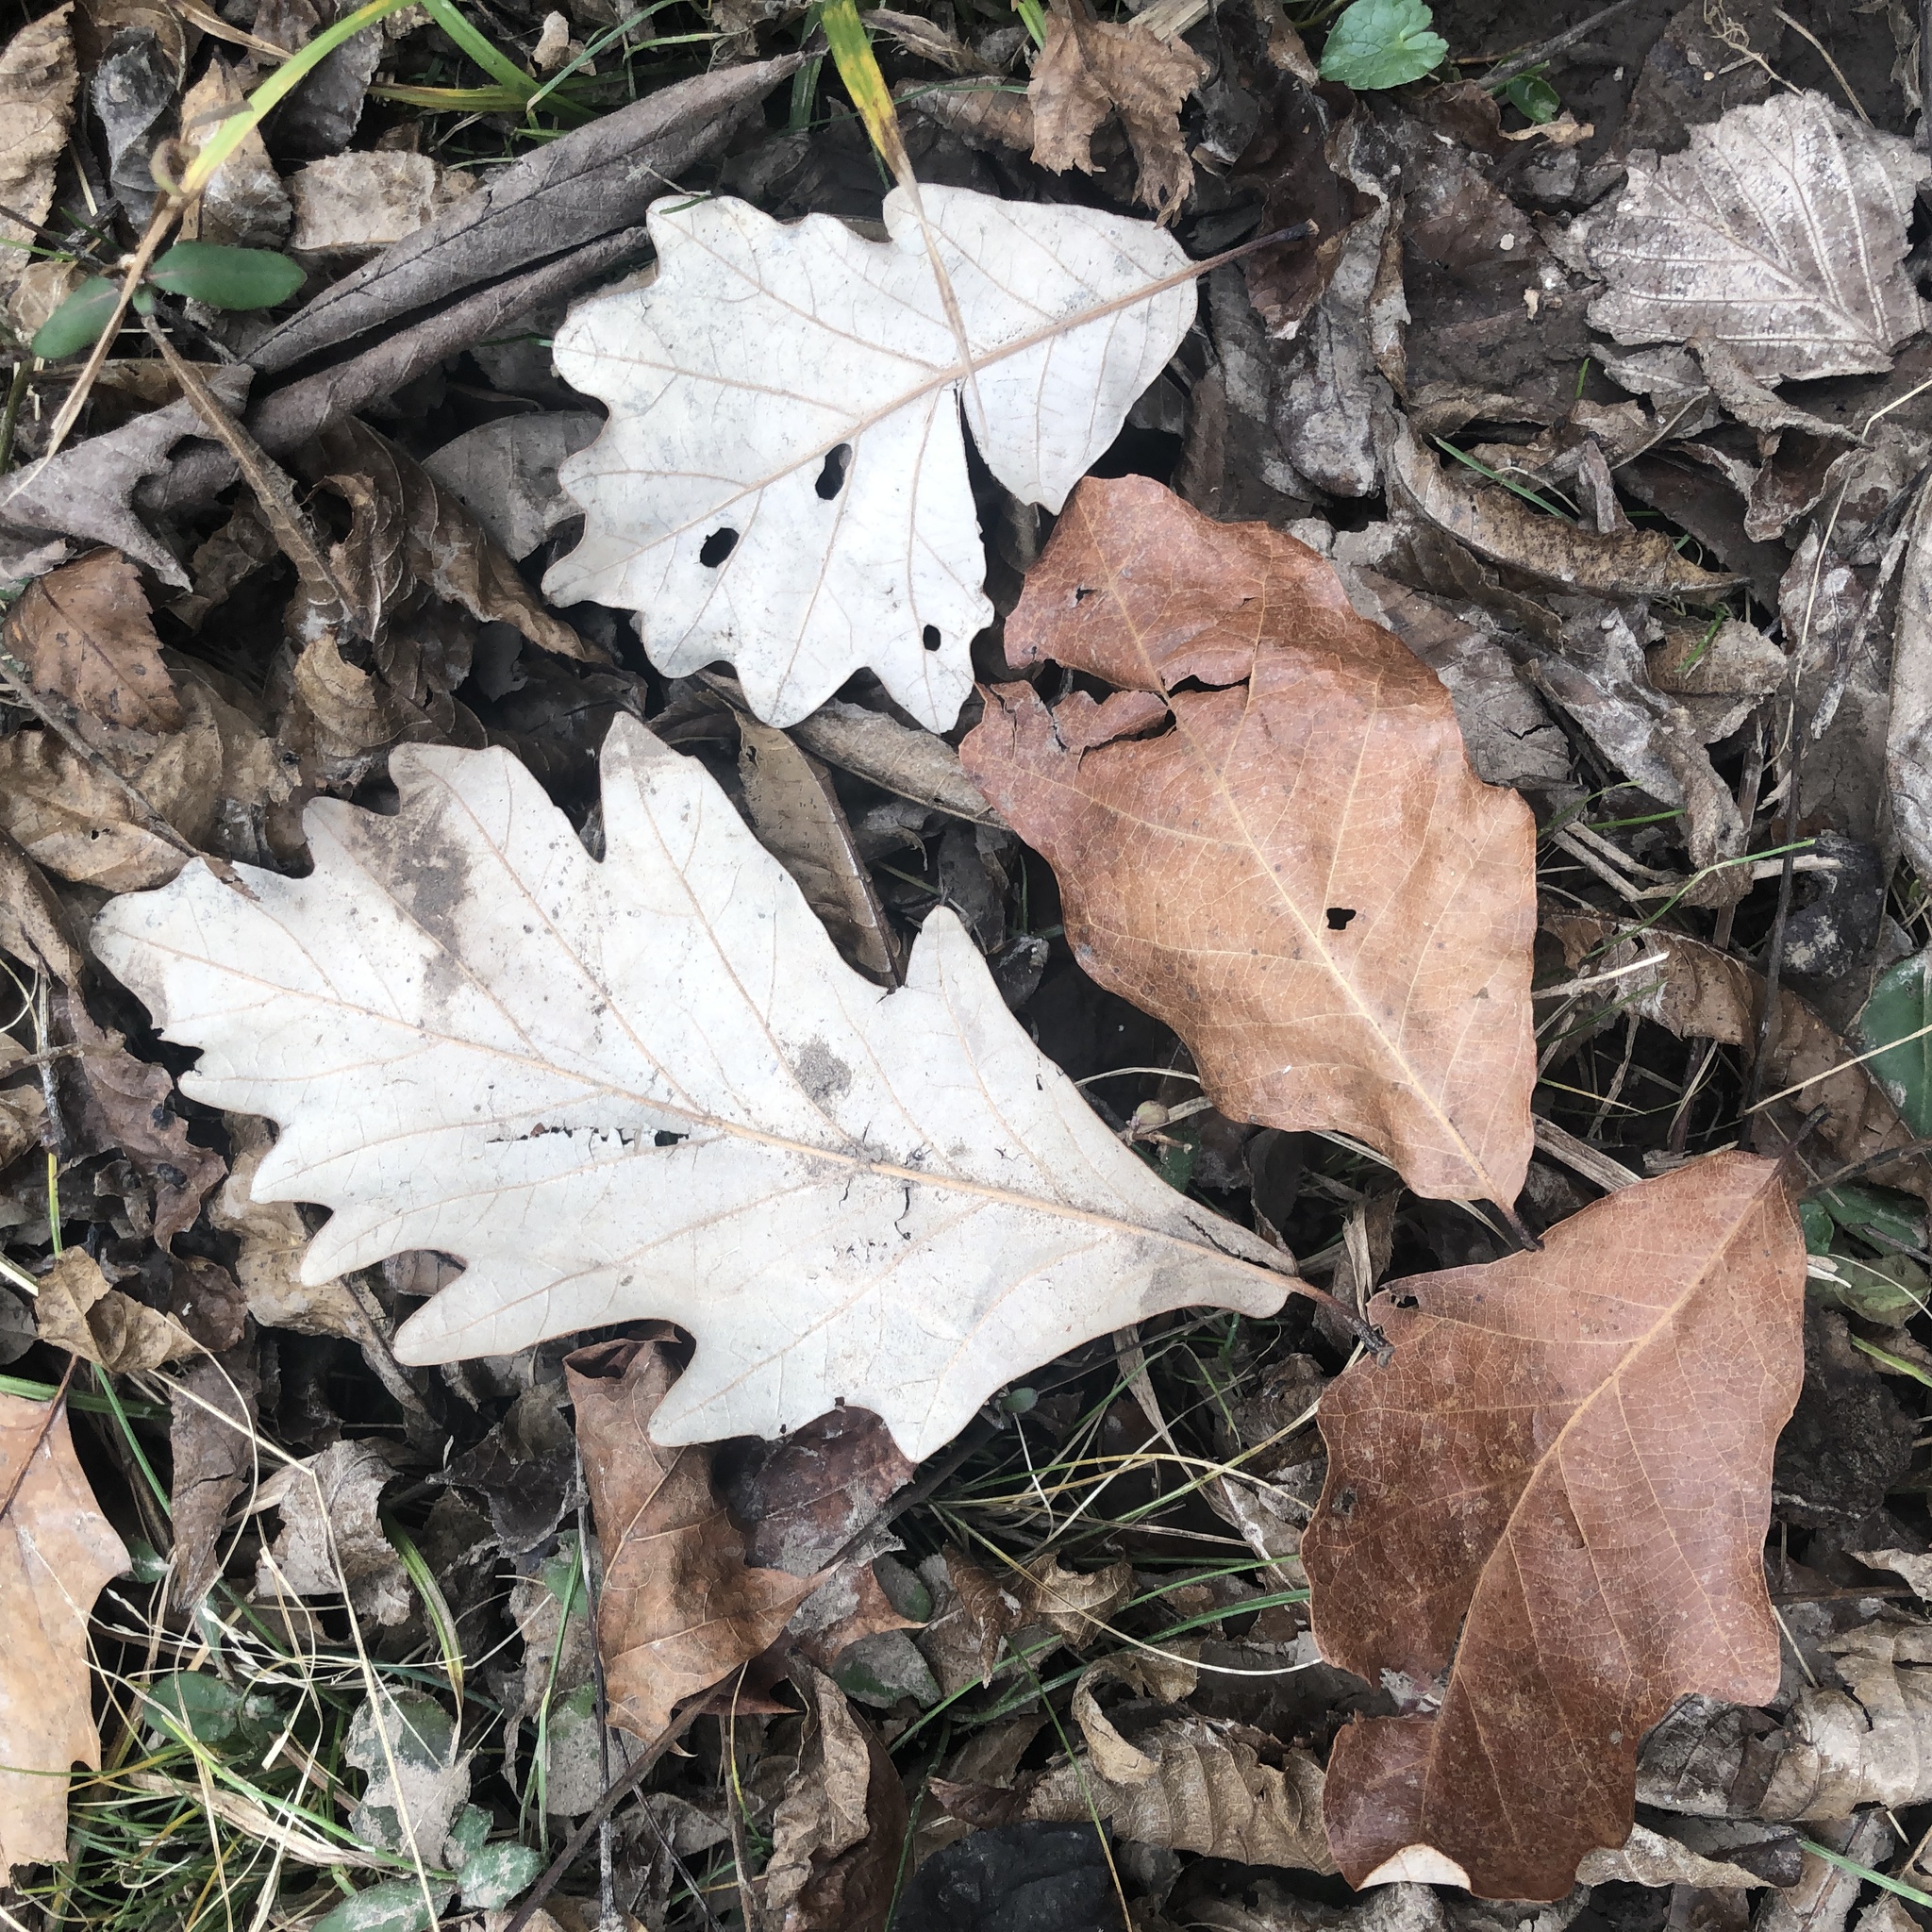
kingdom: Plantae
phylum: Tracheophyta
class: Magnoliopsida
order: Fagales
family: Fagaceae
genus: Quercus
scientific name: Quercus bicolor
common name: Swamp white oak
